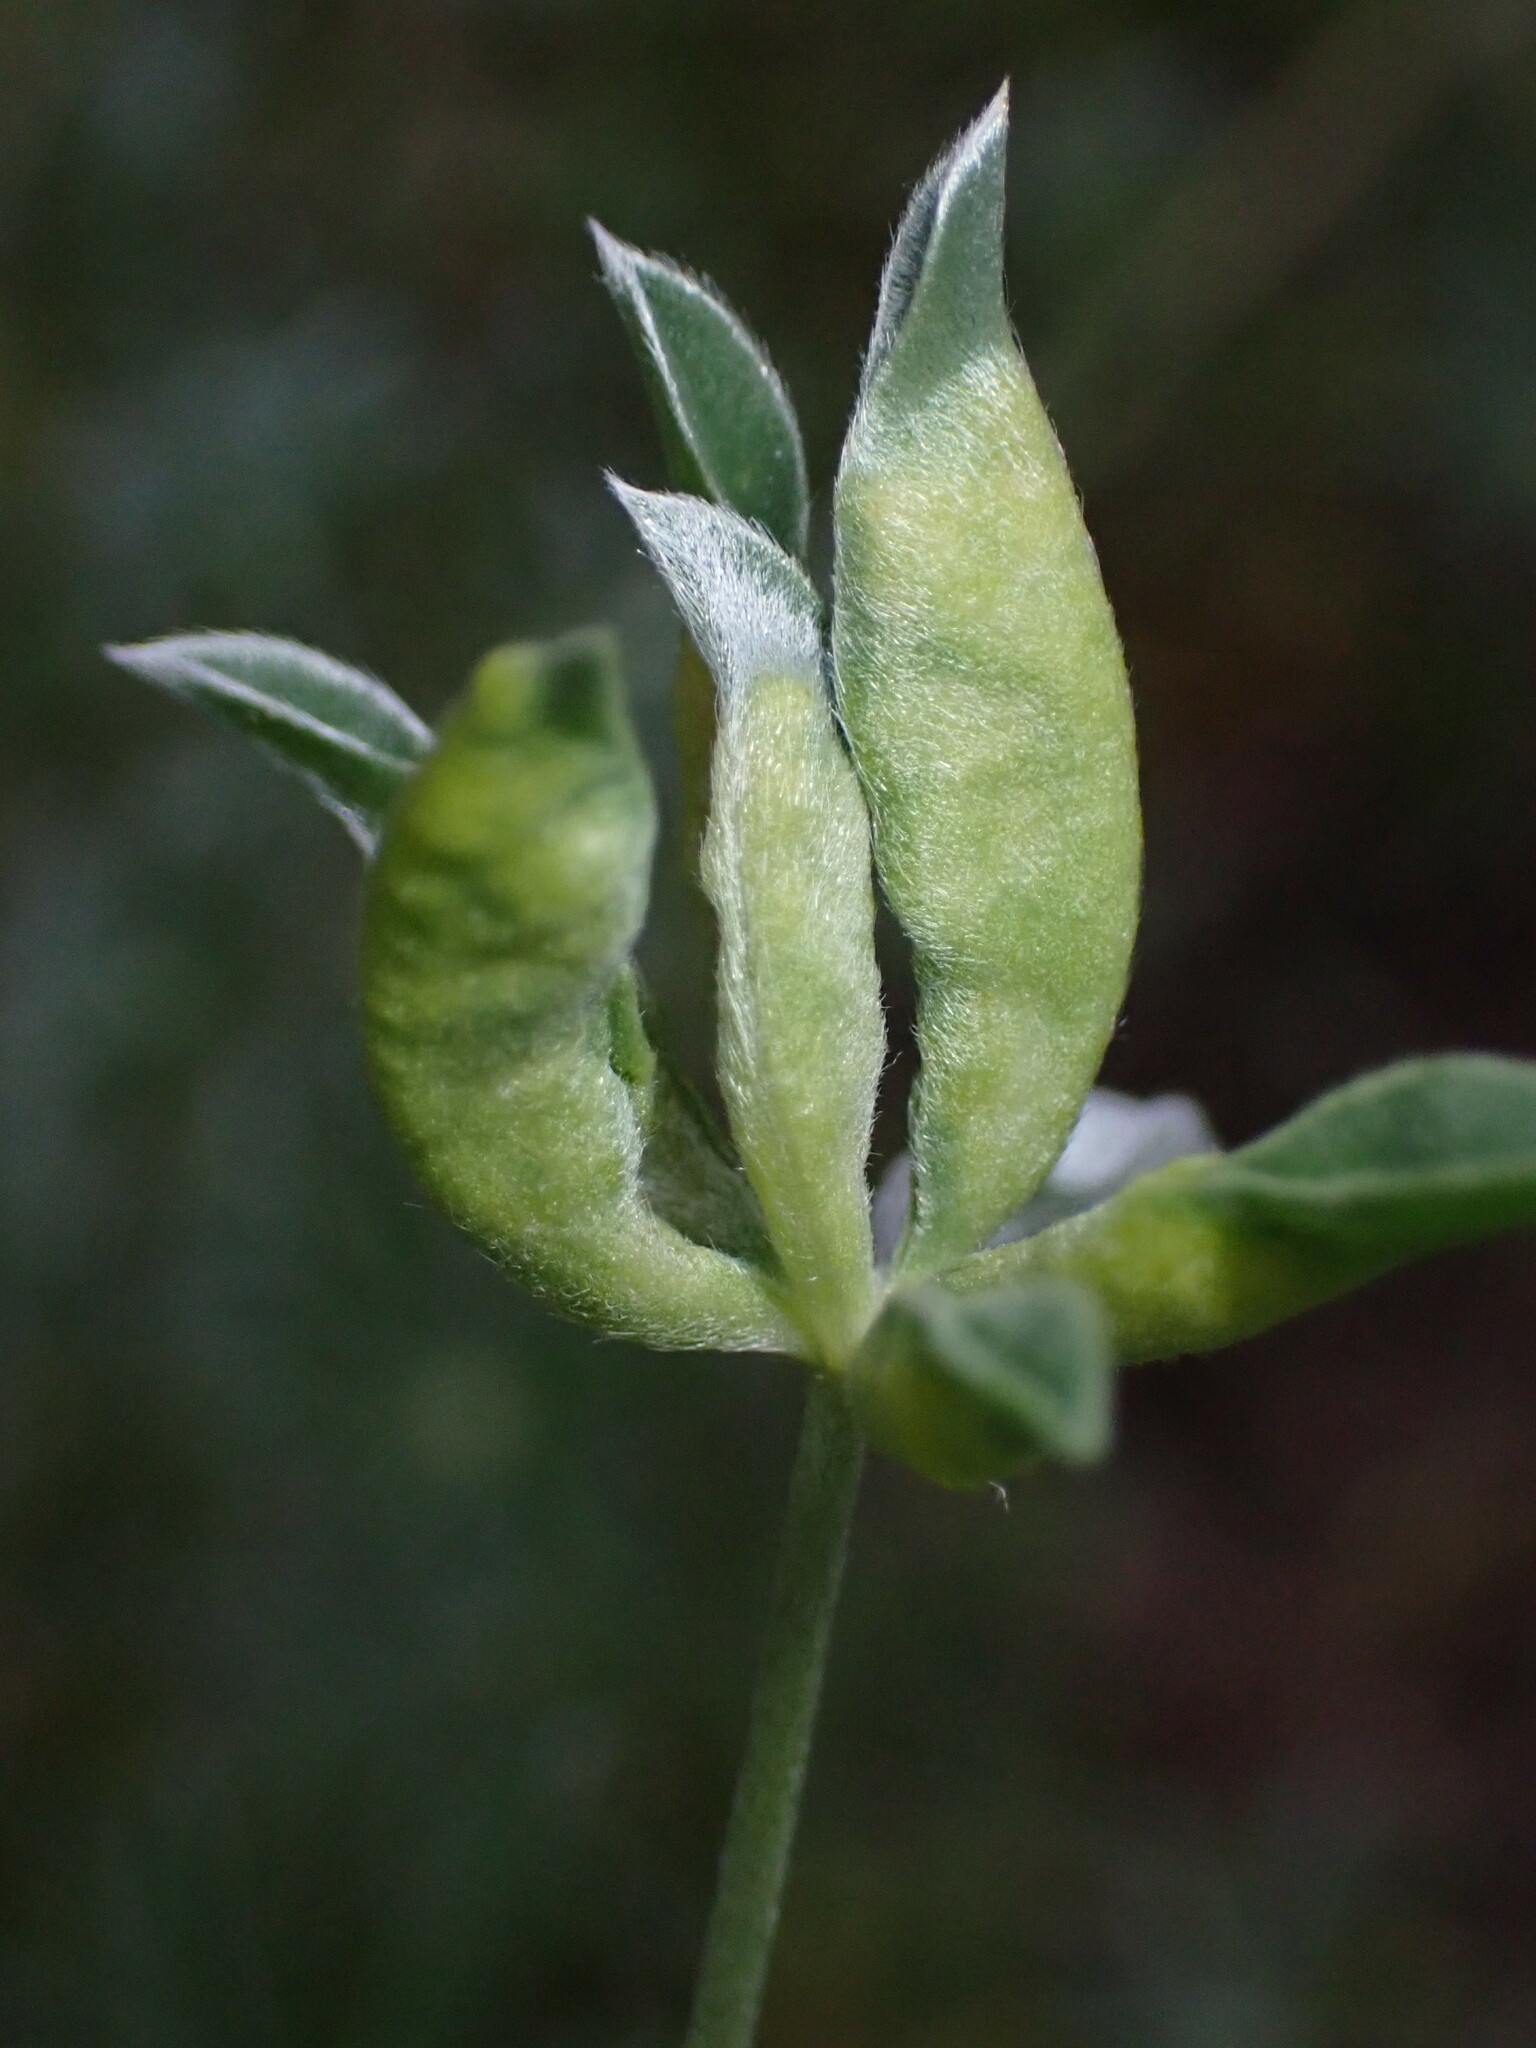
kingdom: Animalia
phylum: Arthropoda
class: Insecta
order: Diptera
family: Cecidomyiidae
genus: Dasineura
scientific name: Dasineura lupinorum
